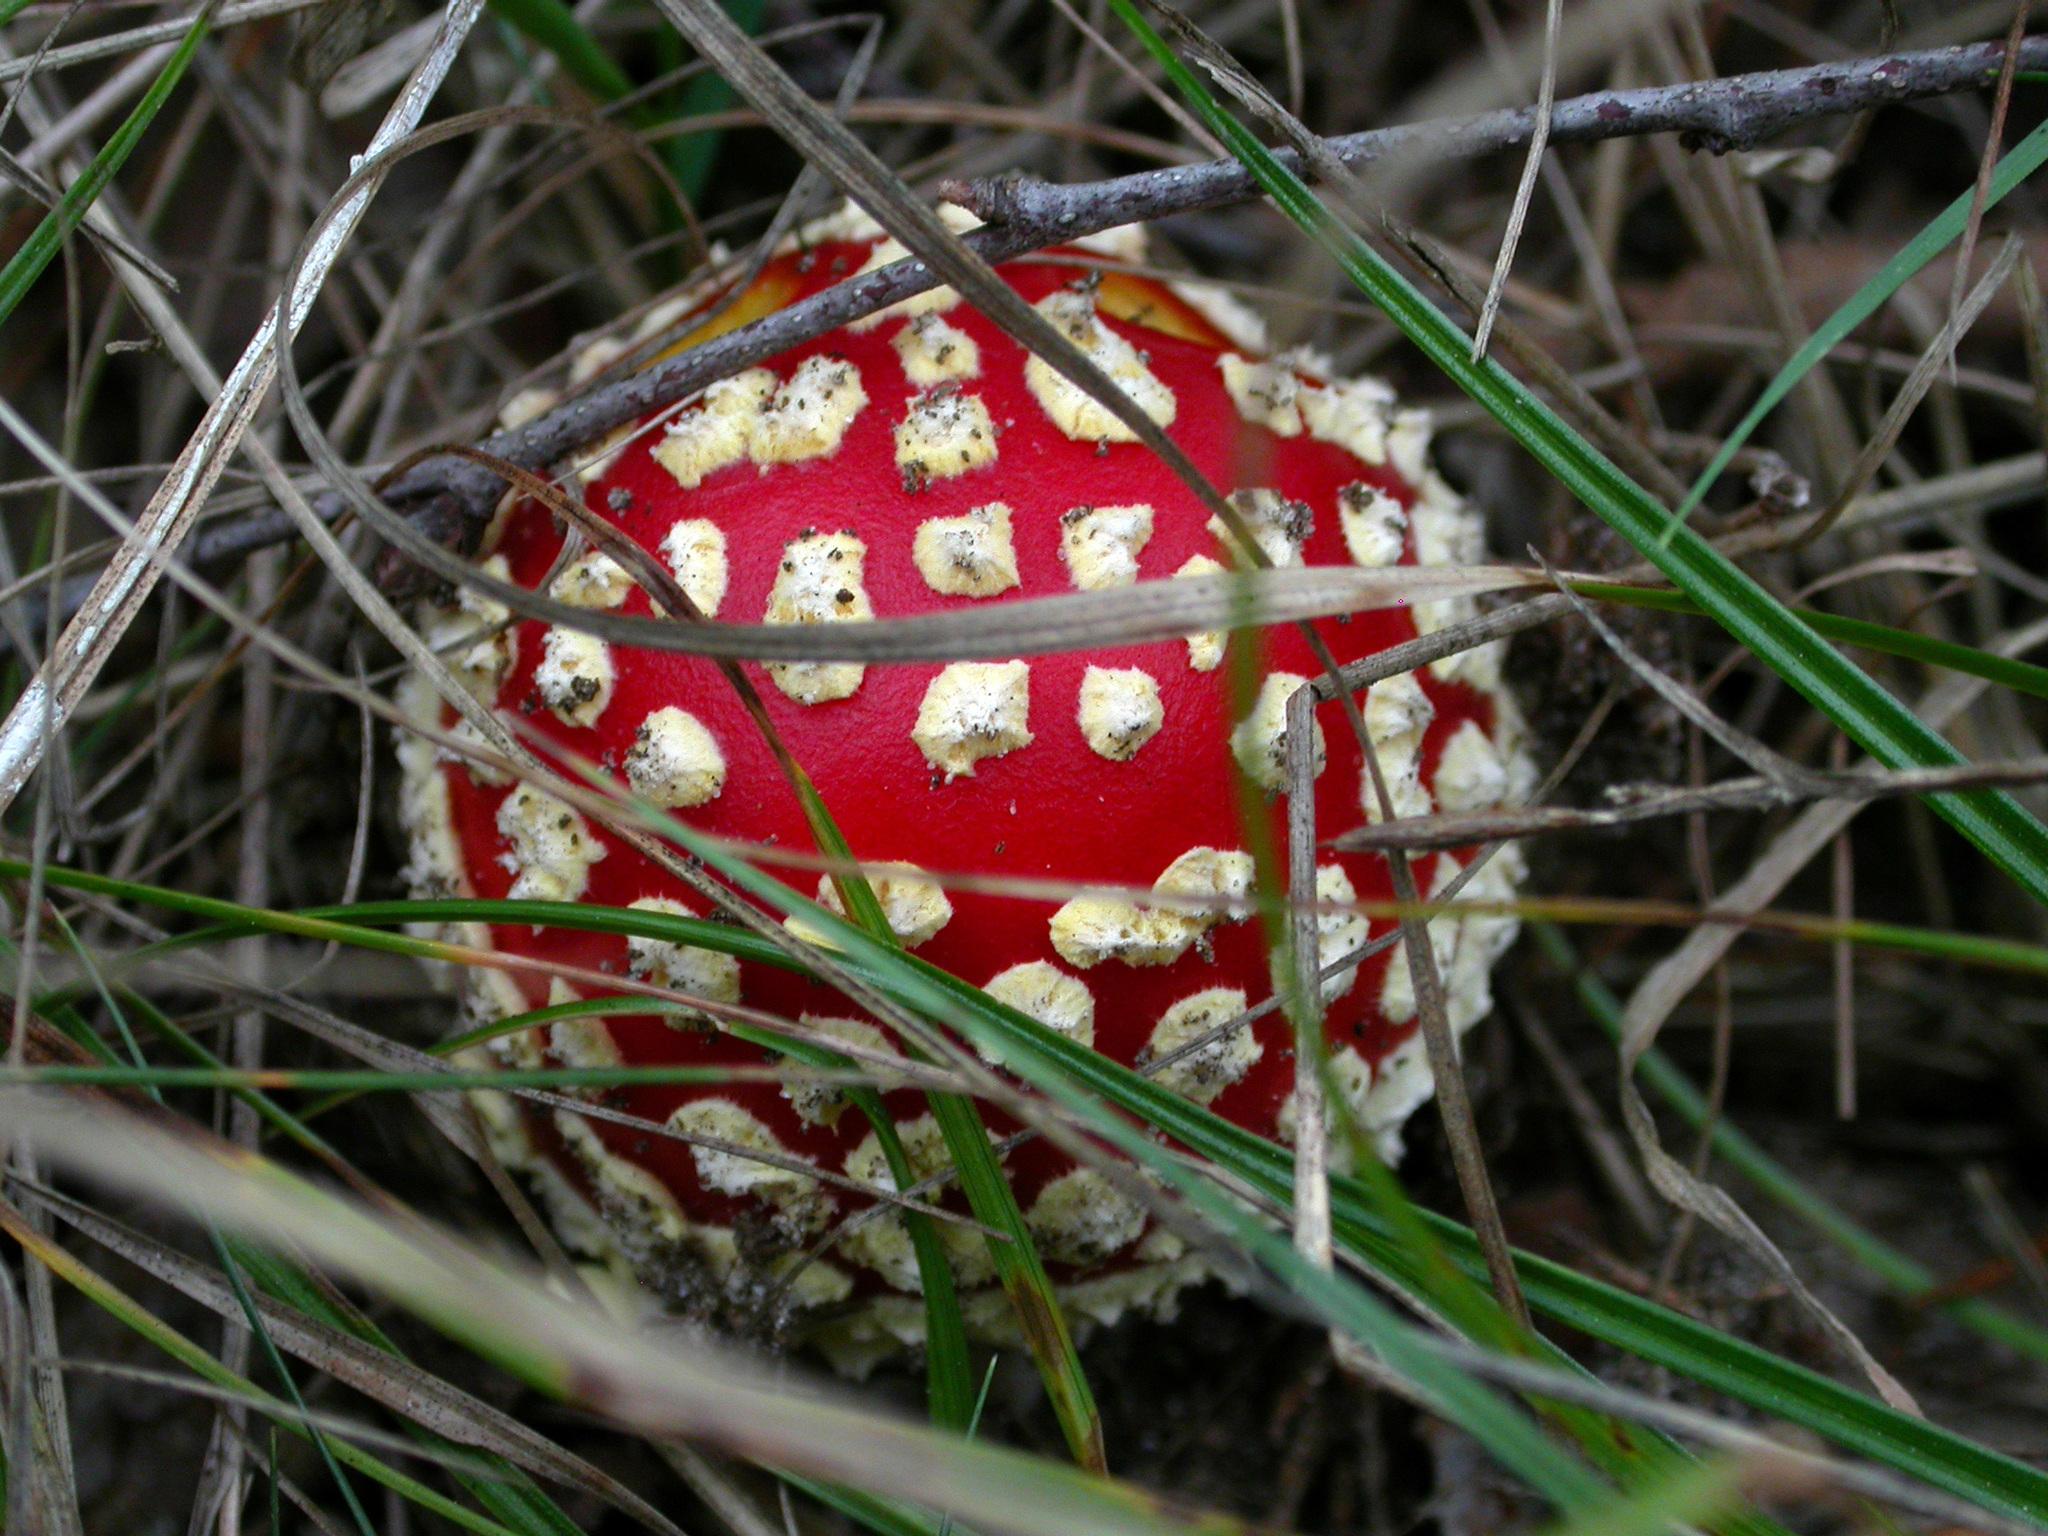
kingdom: Fungi
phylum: Basidiomycota
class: Agaricomycetes
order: Agaricales
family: Amanitaceae
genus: Amanita
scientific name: Amanita muscaria
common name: Fly agaric
